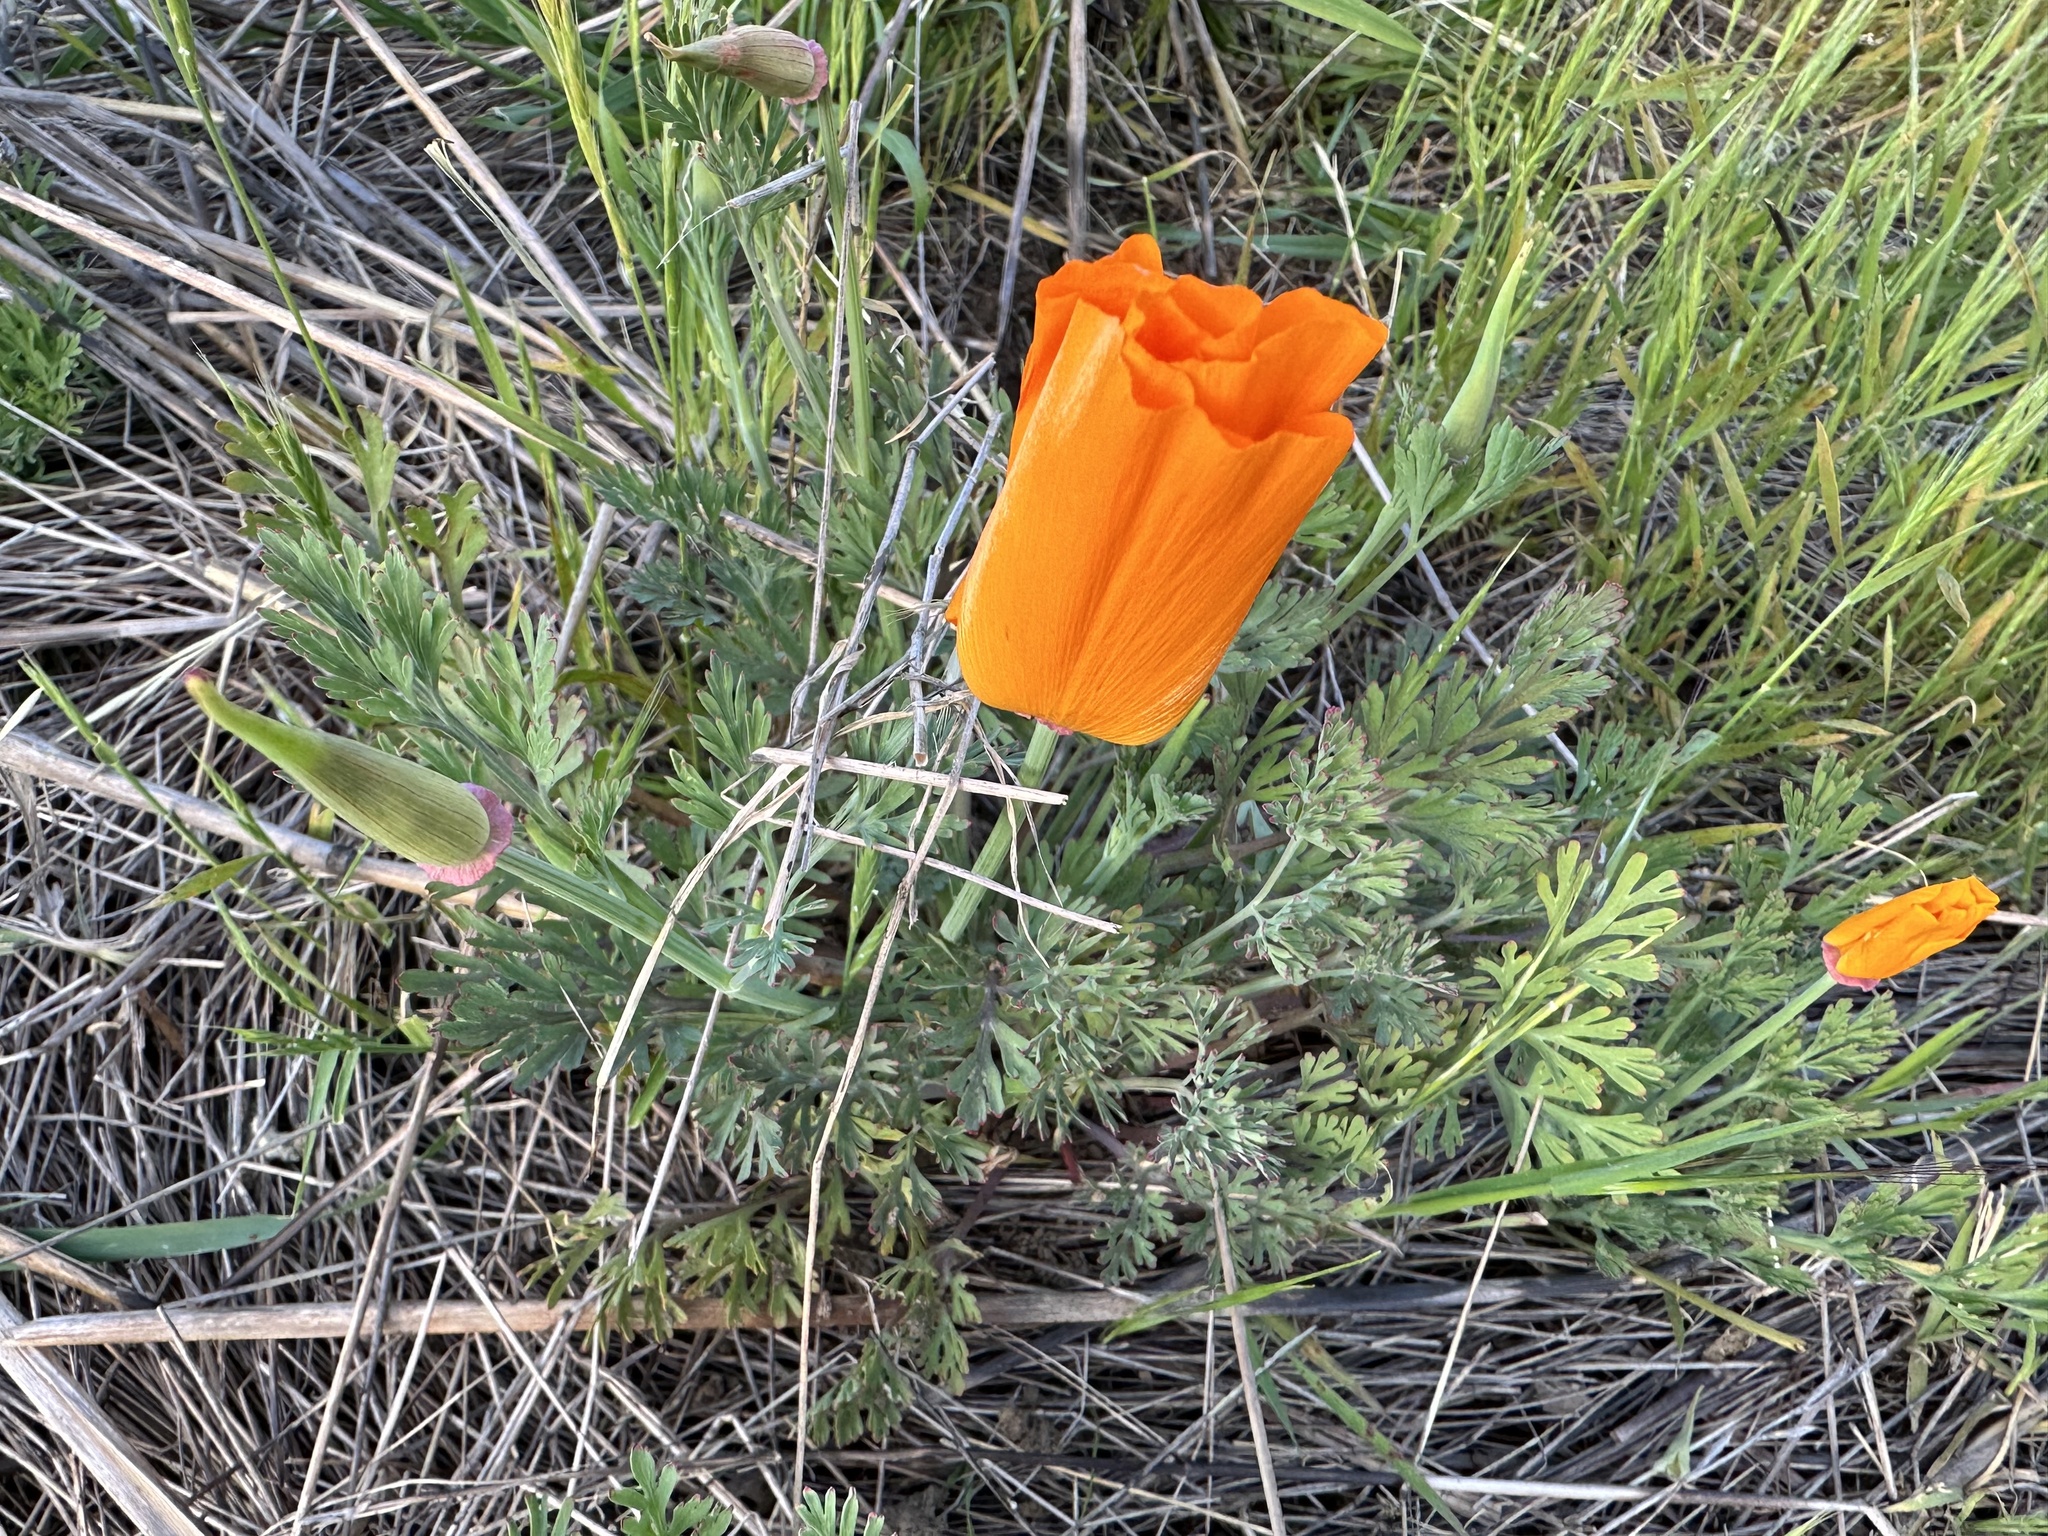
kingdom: Plantae
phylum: Tracheophyta
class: Magnoliopsida
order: Ranunculales
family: Papaveraceae
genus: Eschscholzia
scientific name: Eschscholzia californica
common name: California poppy
